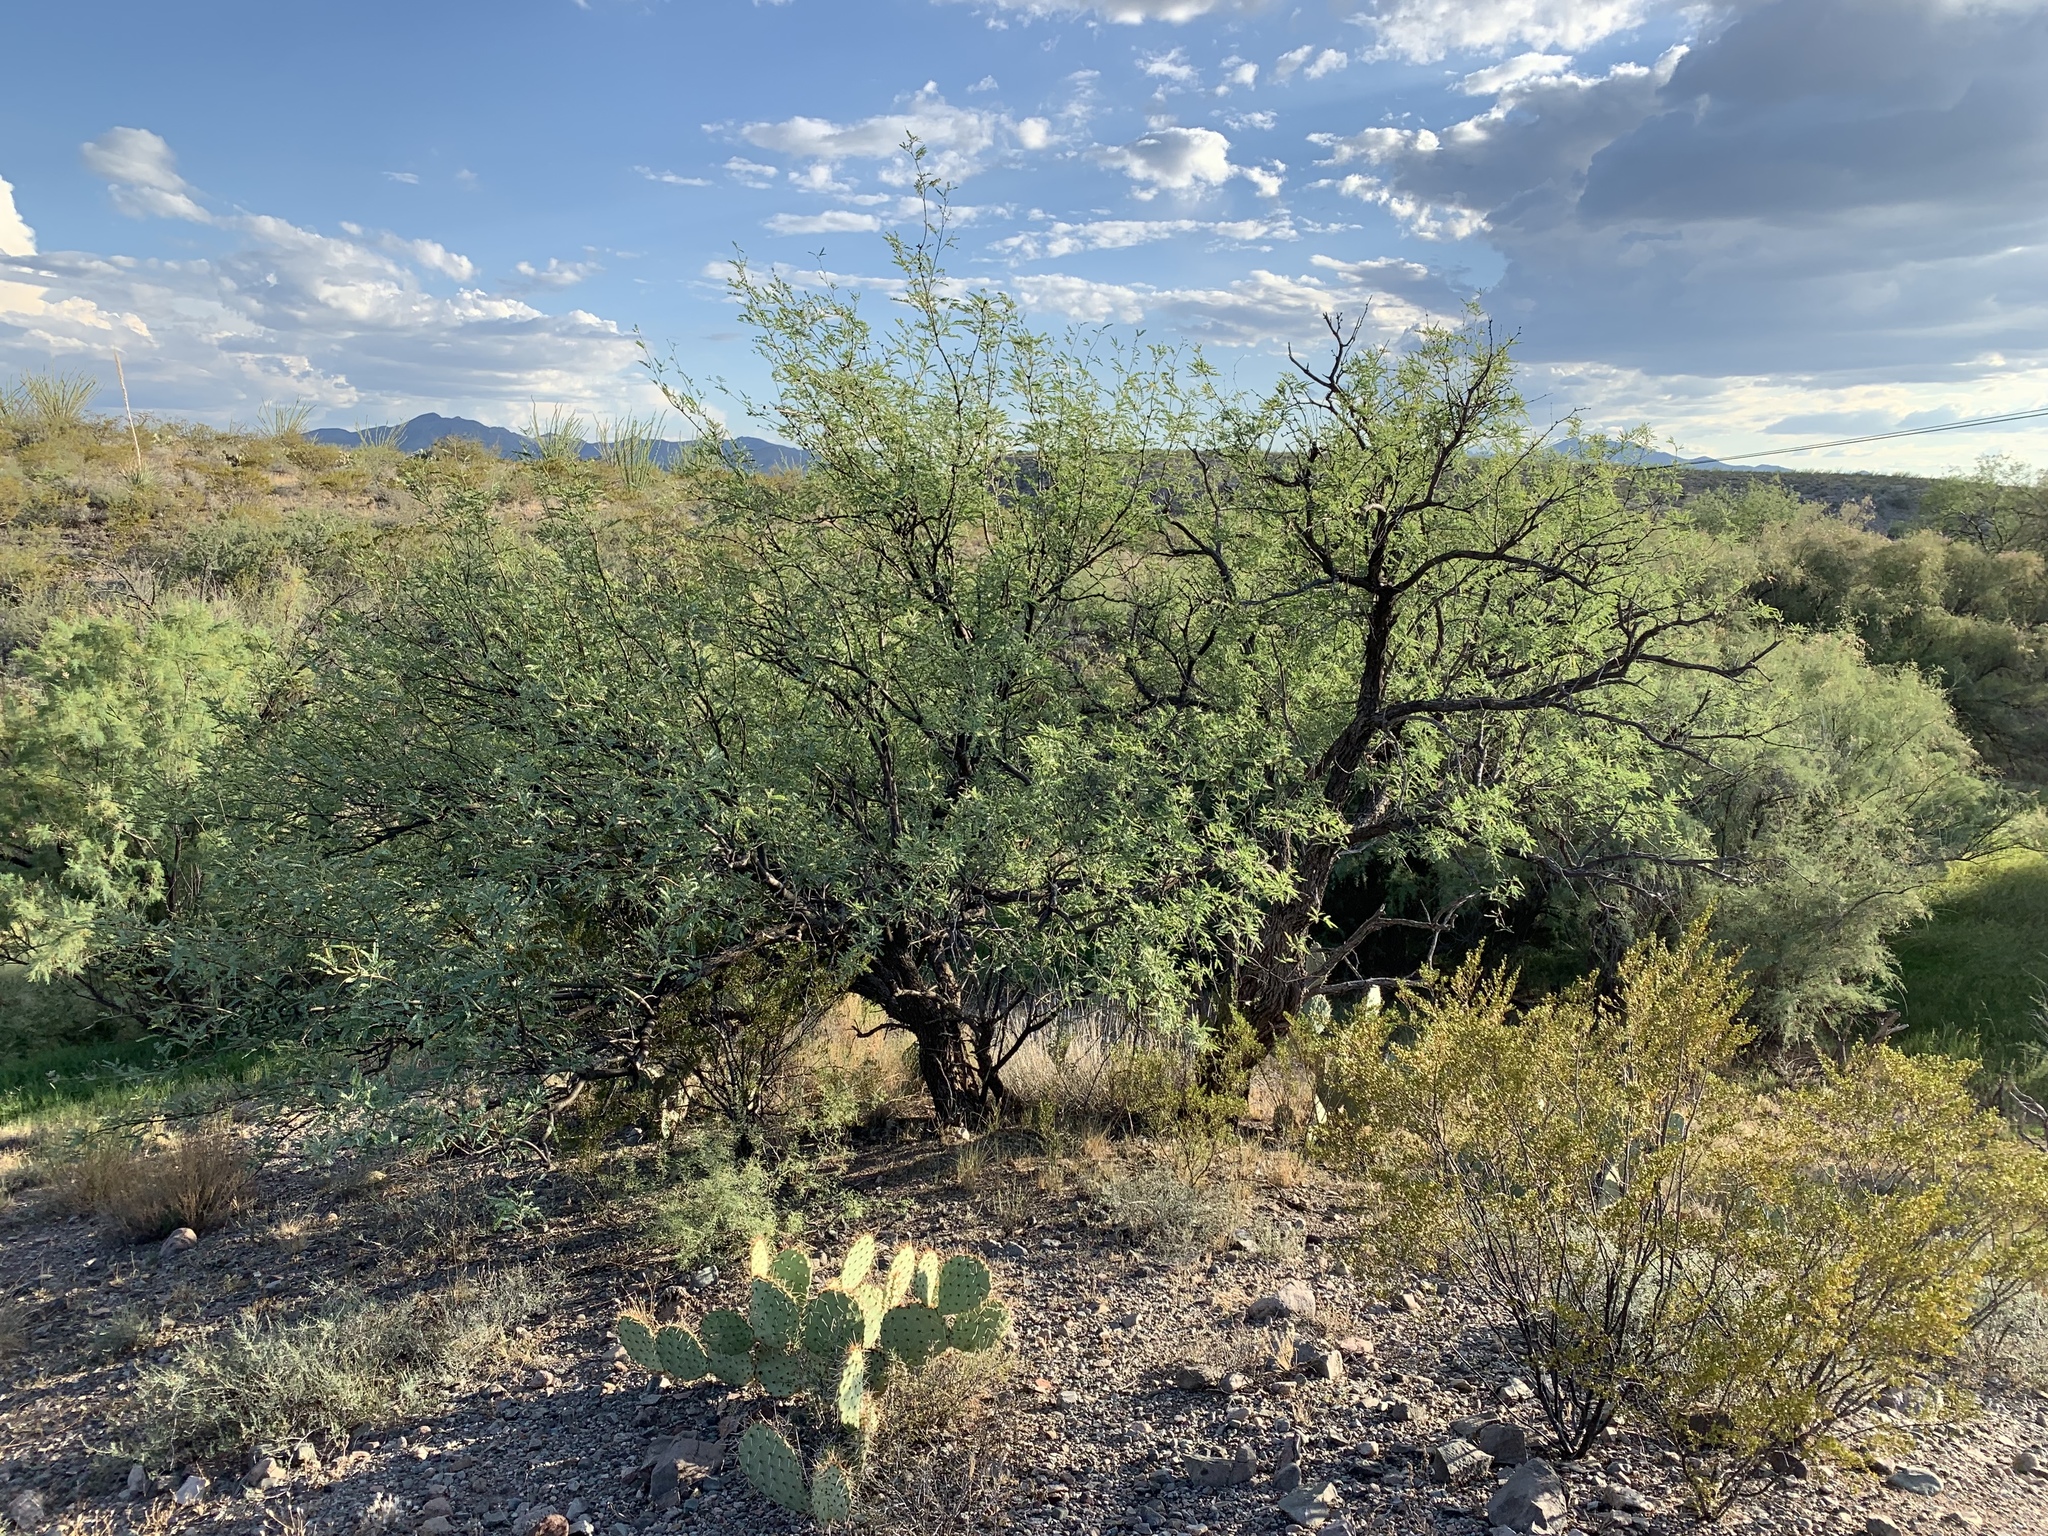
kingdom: Plantae
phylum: Tracheophyta
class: Magnoliopsida
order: Fabales
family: Fabaceae
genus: Prosopis
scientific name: Prosopis velutina
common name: Velvet mesquite
